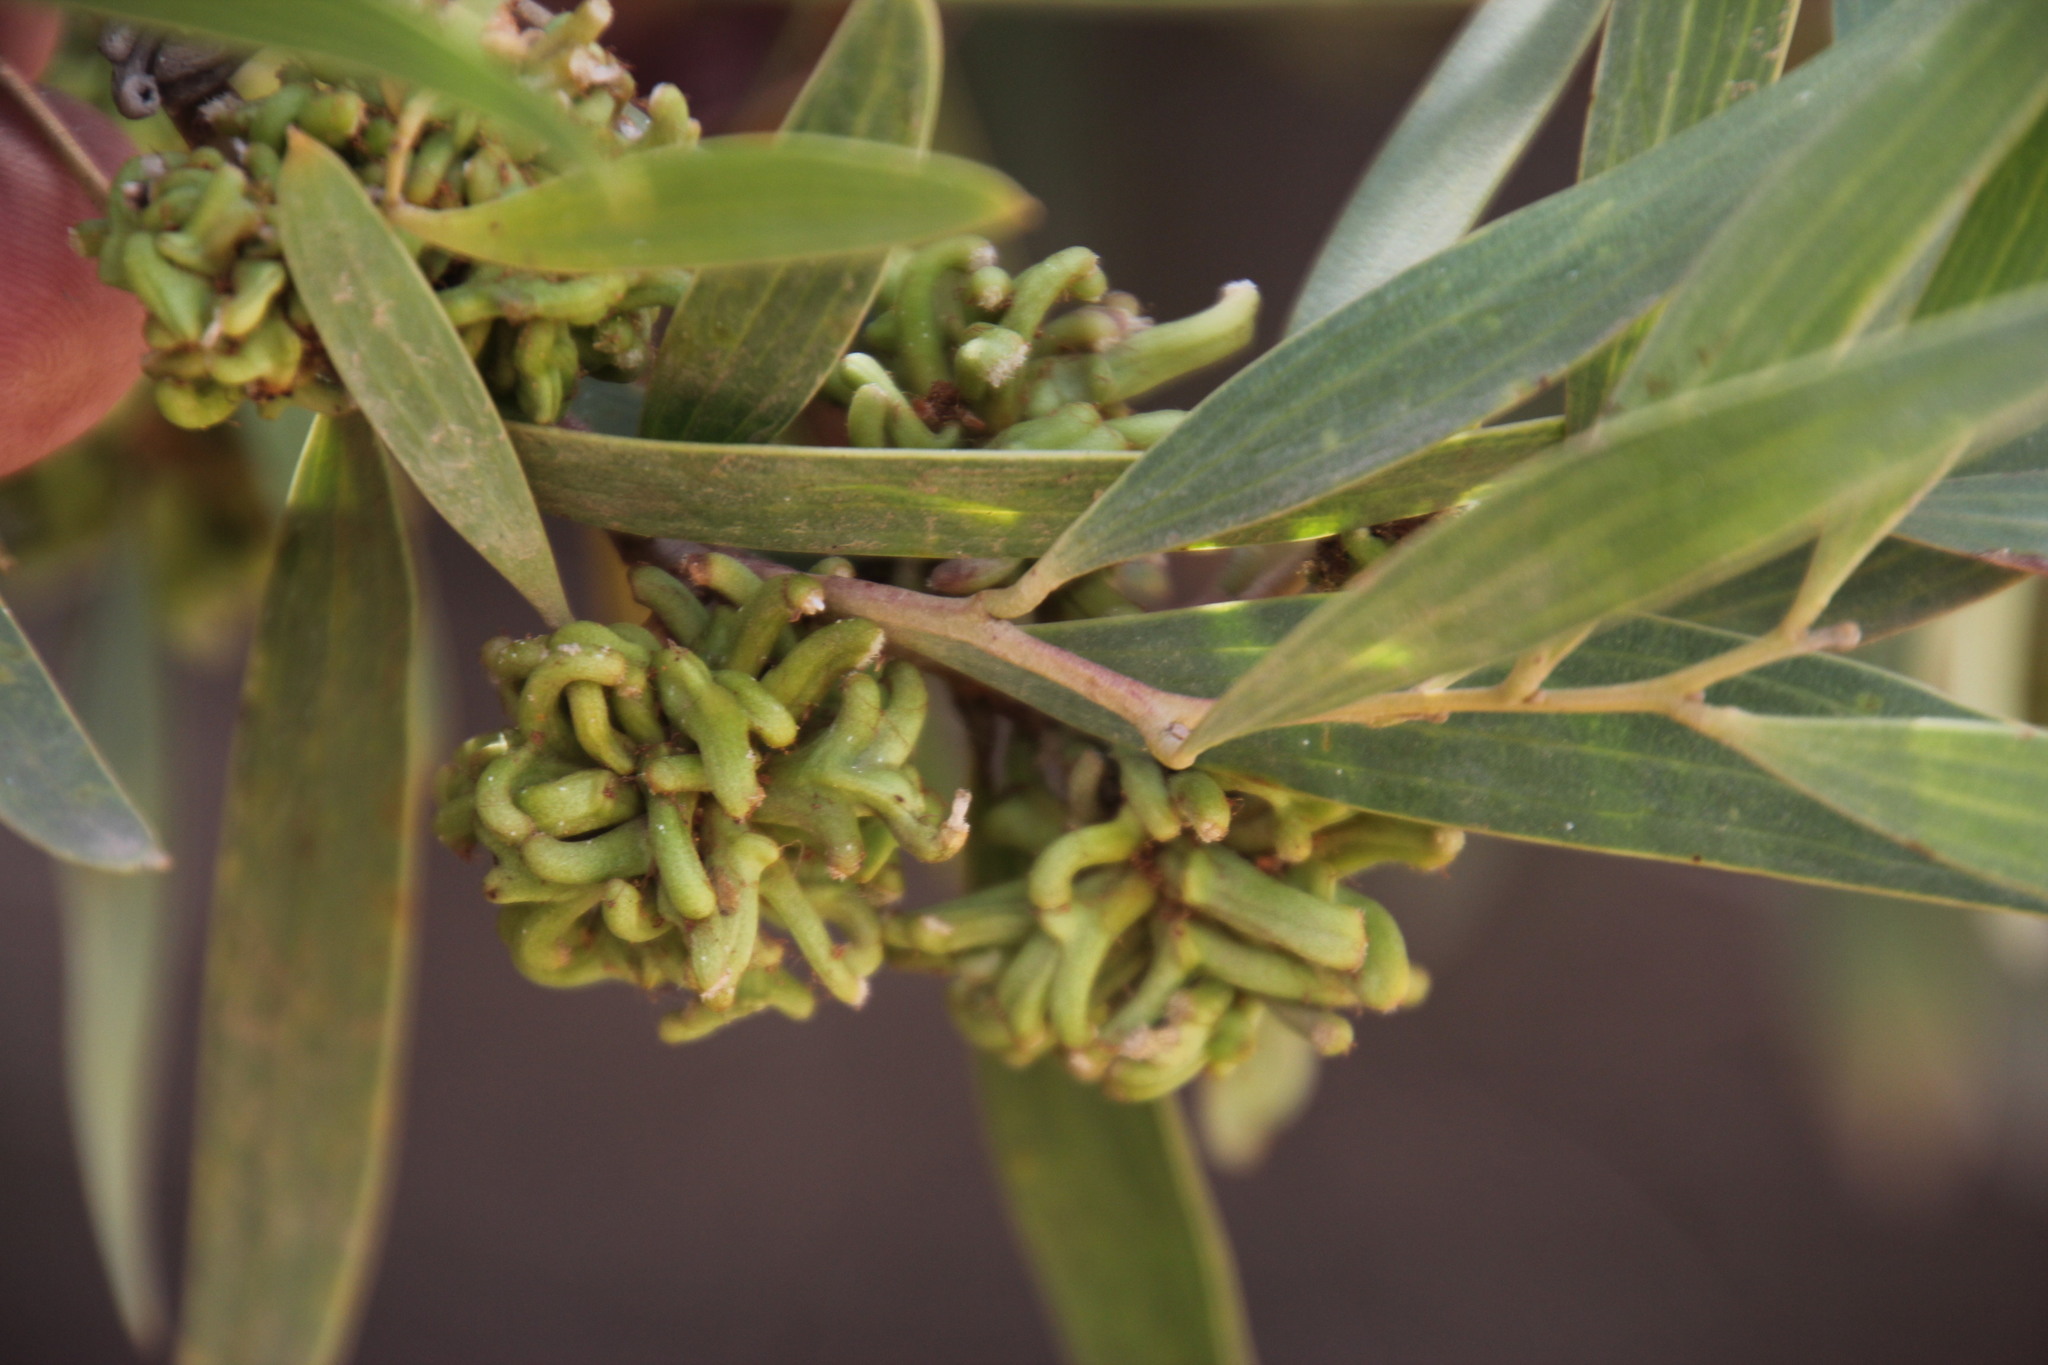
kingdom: Plantae
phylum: Tracheophyta
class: Magnoliopsida
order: Fabales
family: Fabaceae
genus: Acacia
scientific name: Acacia cyclops
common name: Coastal wattle
